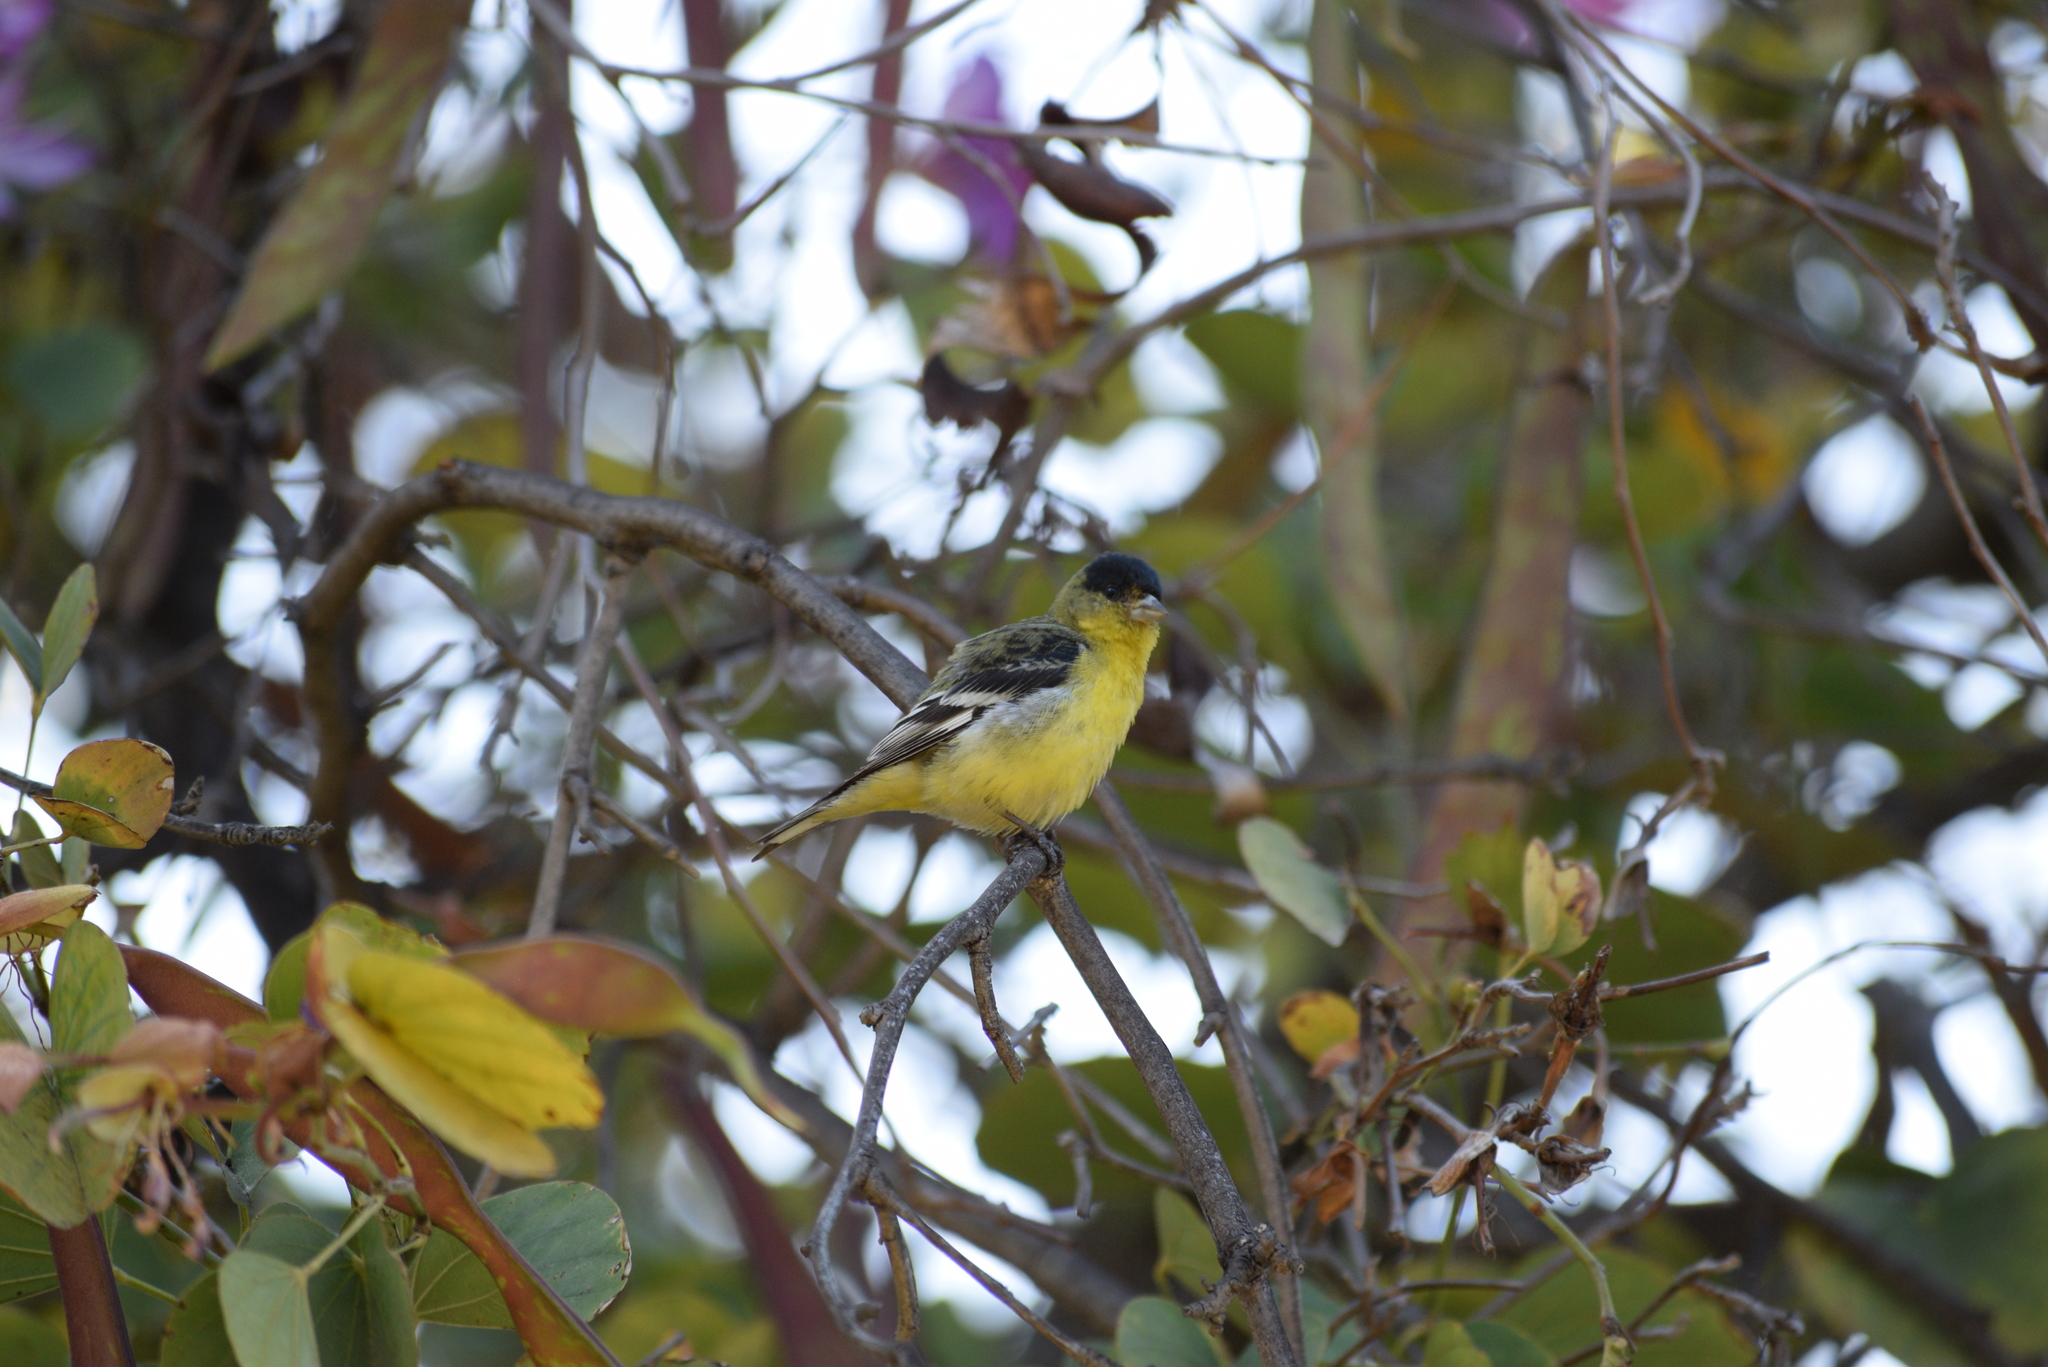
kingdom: Animalia
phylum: Chordata
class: Aves
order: Passeriformes
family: Fringillidae
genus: Spinus
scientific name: Spinus psaltria
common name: Lesser goldfinch
